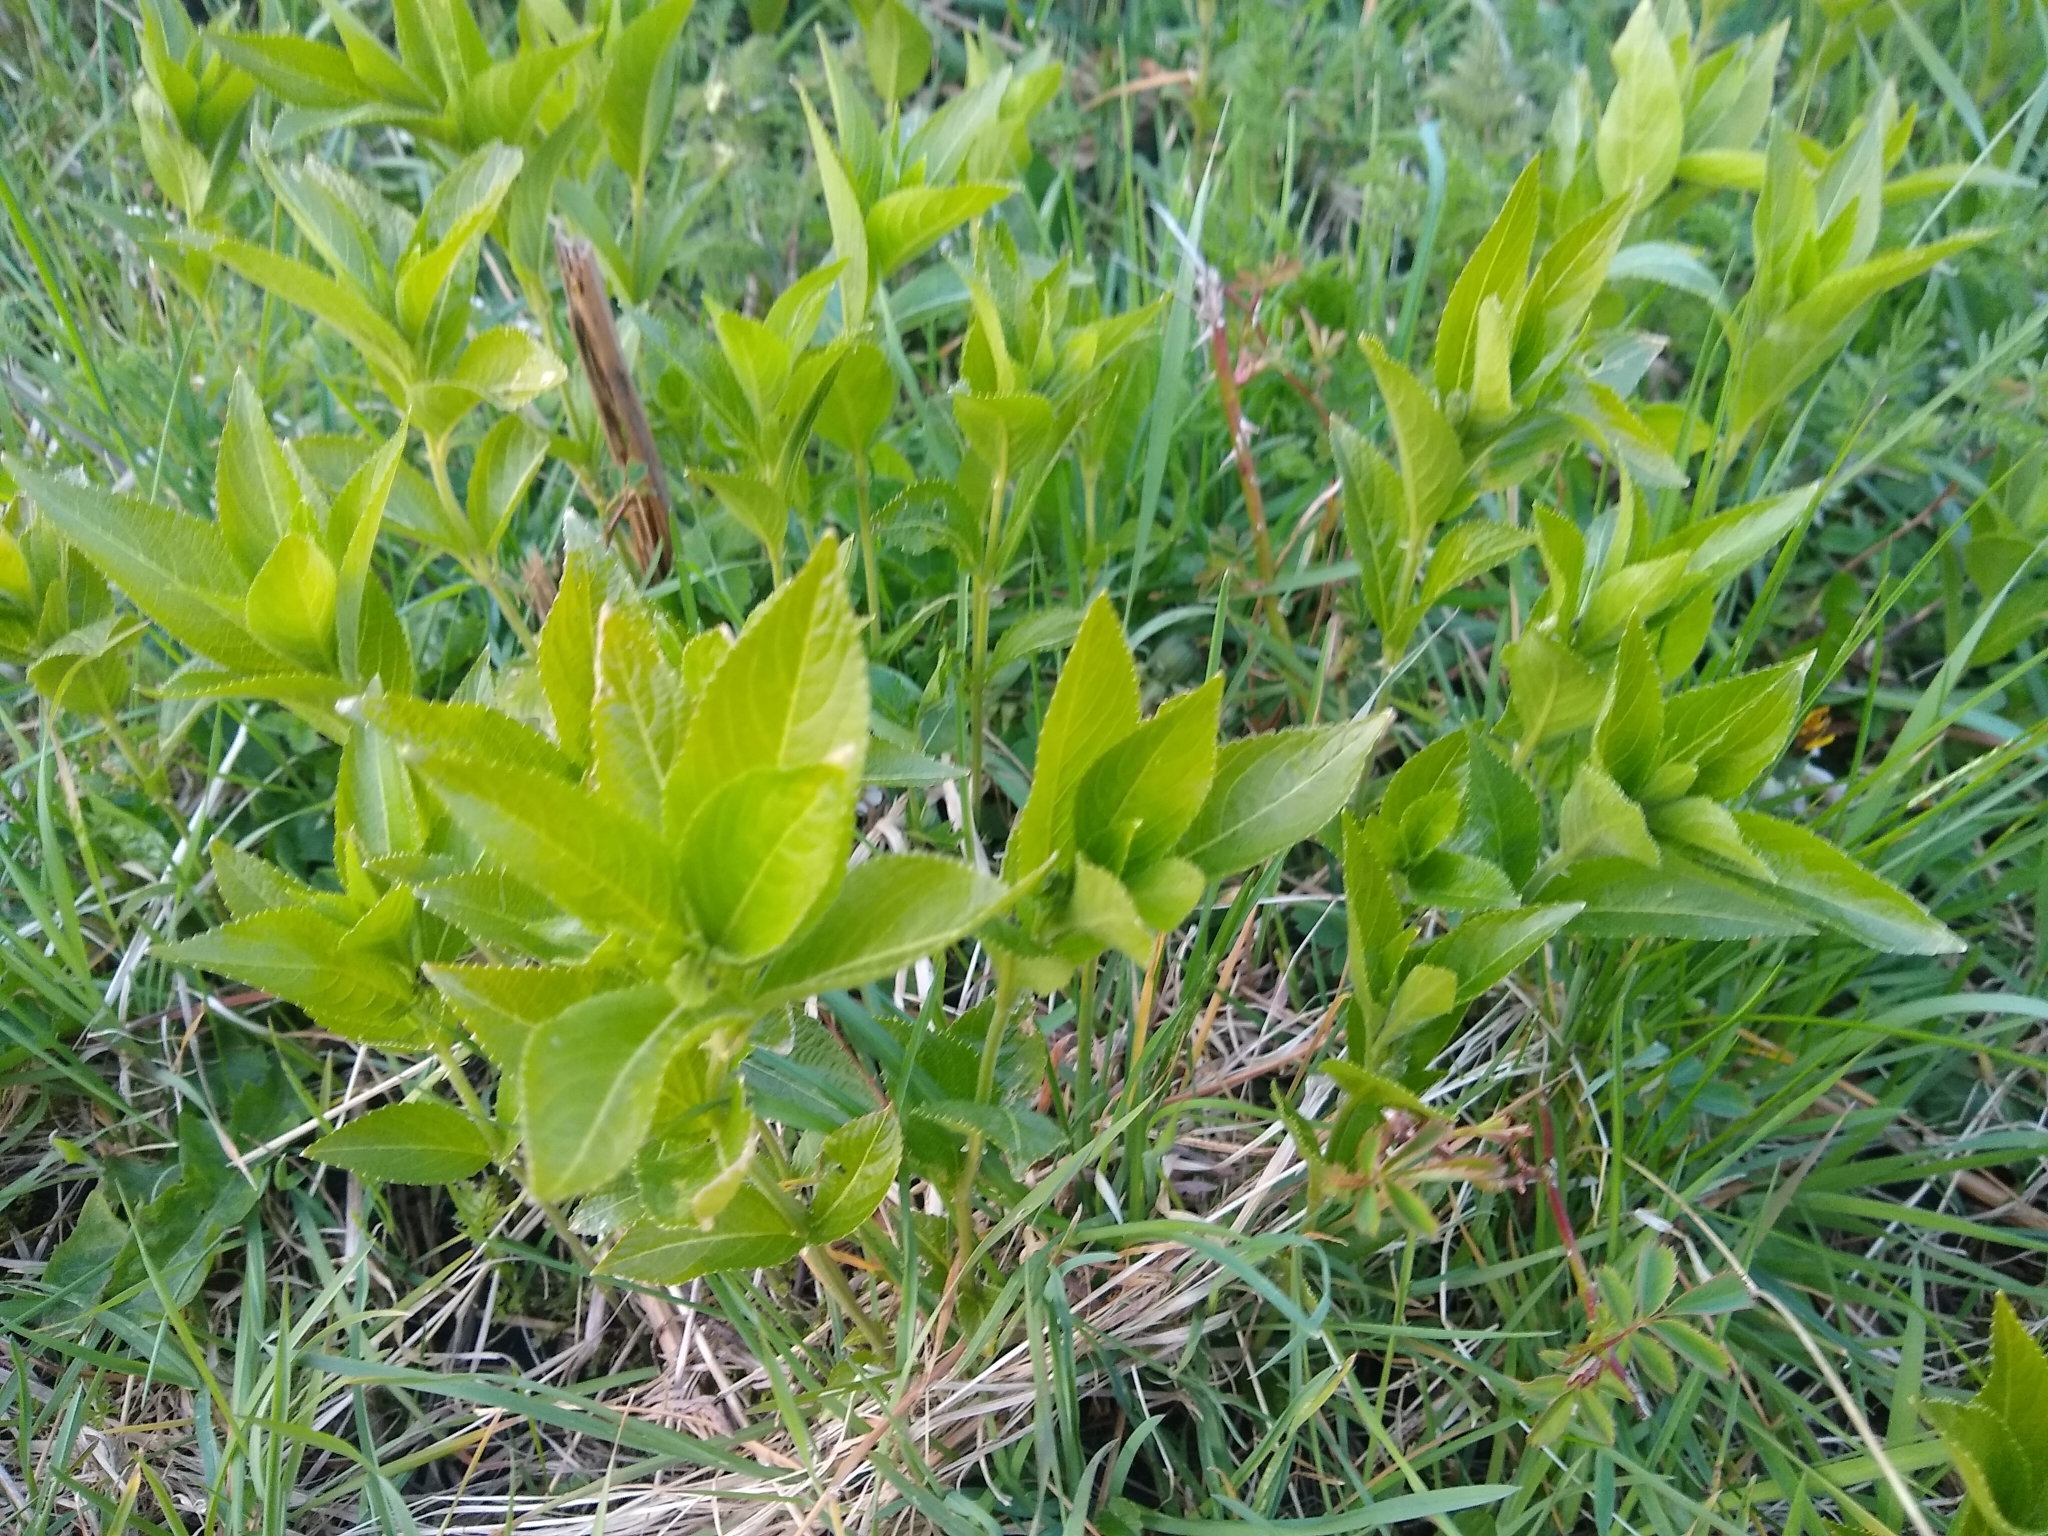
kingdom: Plantae
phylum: Tracheophyta
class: Magnoliopsida
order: Malpighiales
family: Euphorbiaceae
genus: Mercurialis
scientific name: Mercurialis perennis
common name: Dog mercury
